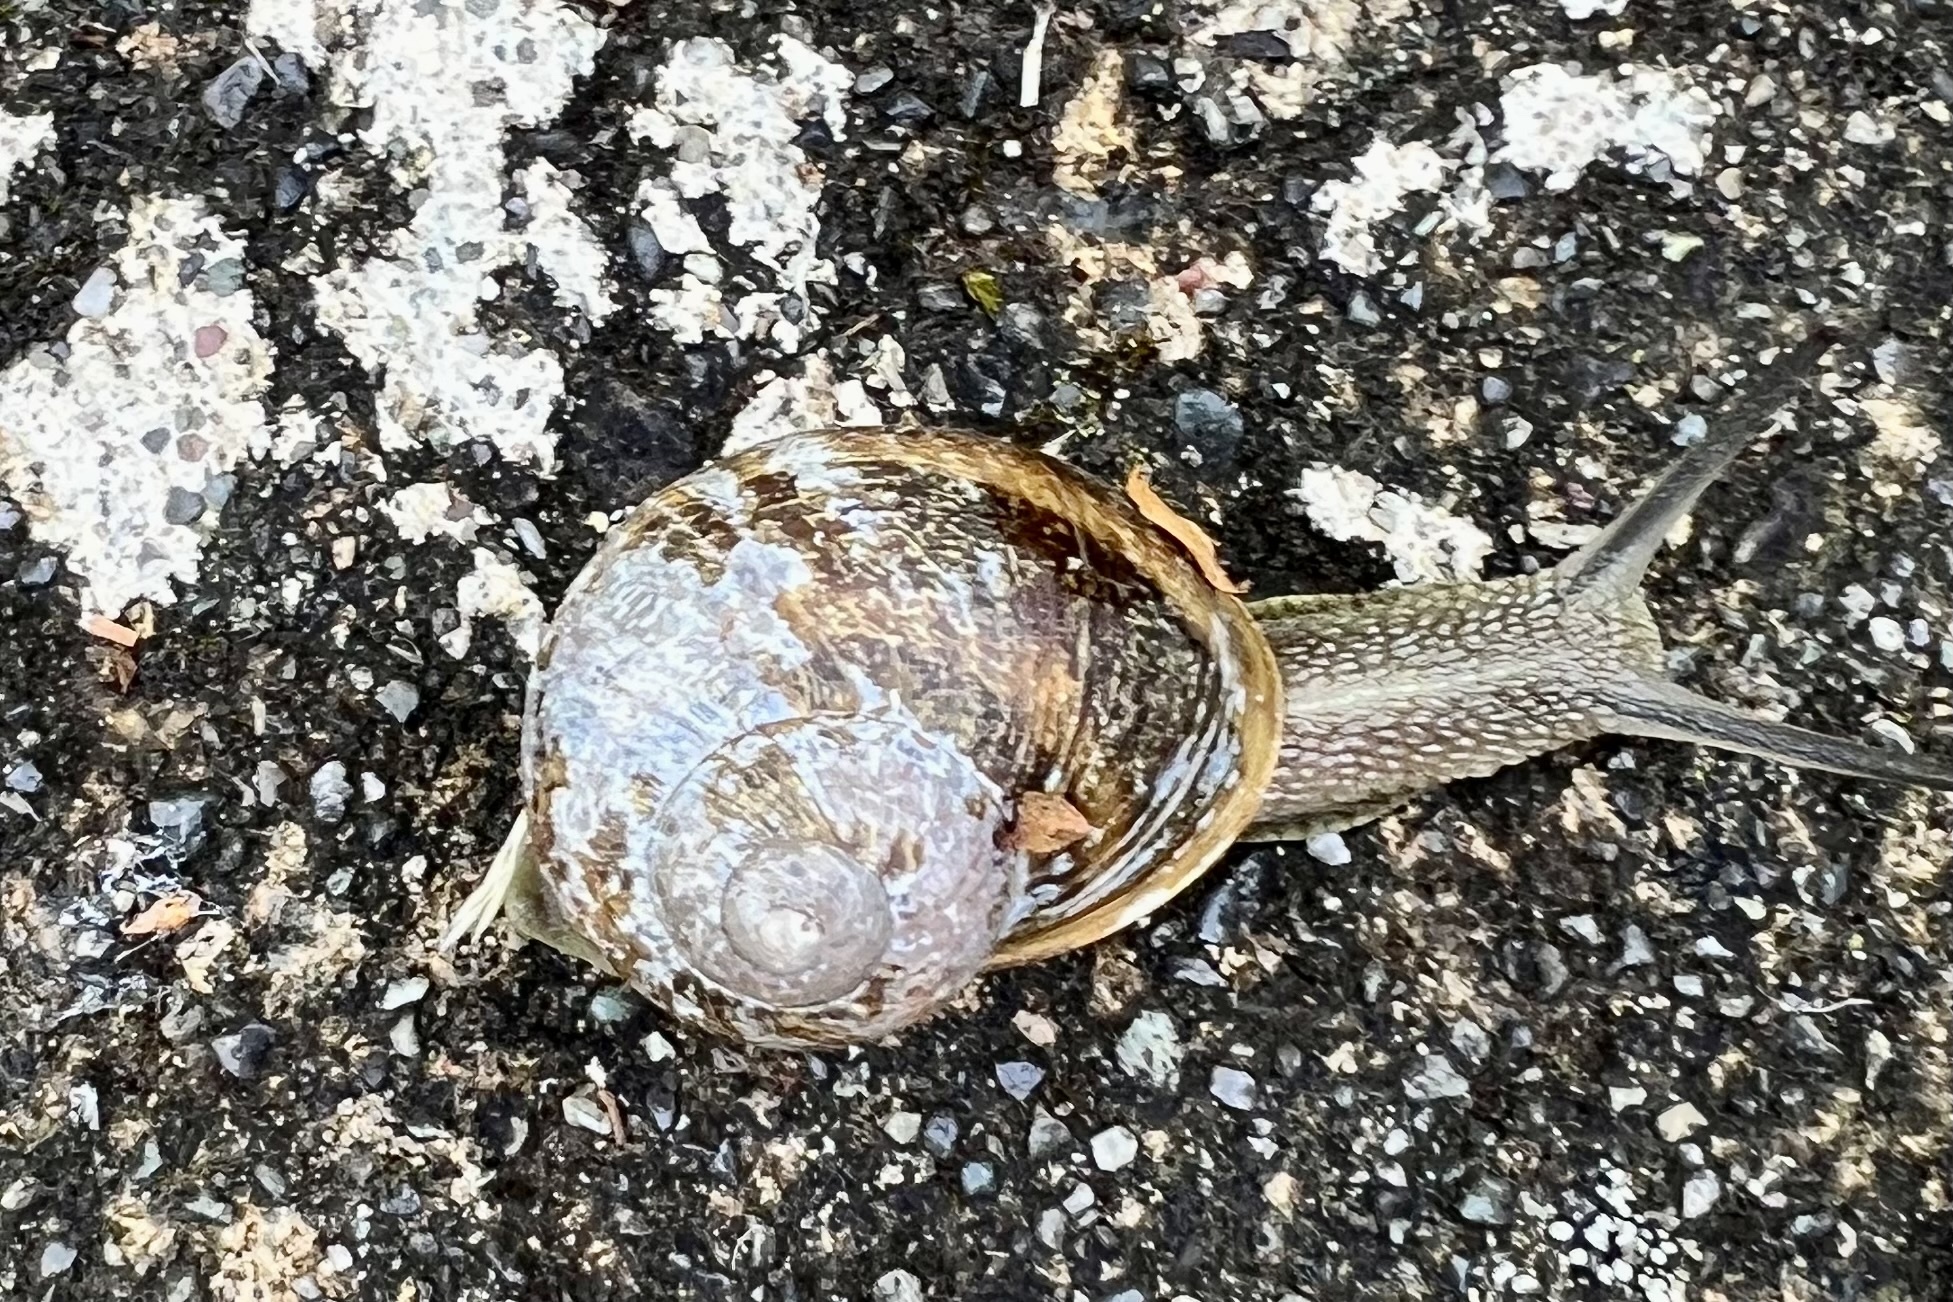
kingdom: Animalia
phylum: Mollusca
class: Gastropoda
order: Stylommatophora
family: Helicidae
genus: Cornu
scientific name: Cornu aspersum
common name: Brown garden snail
